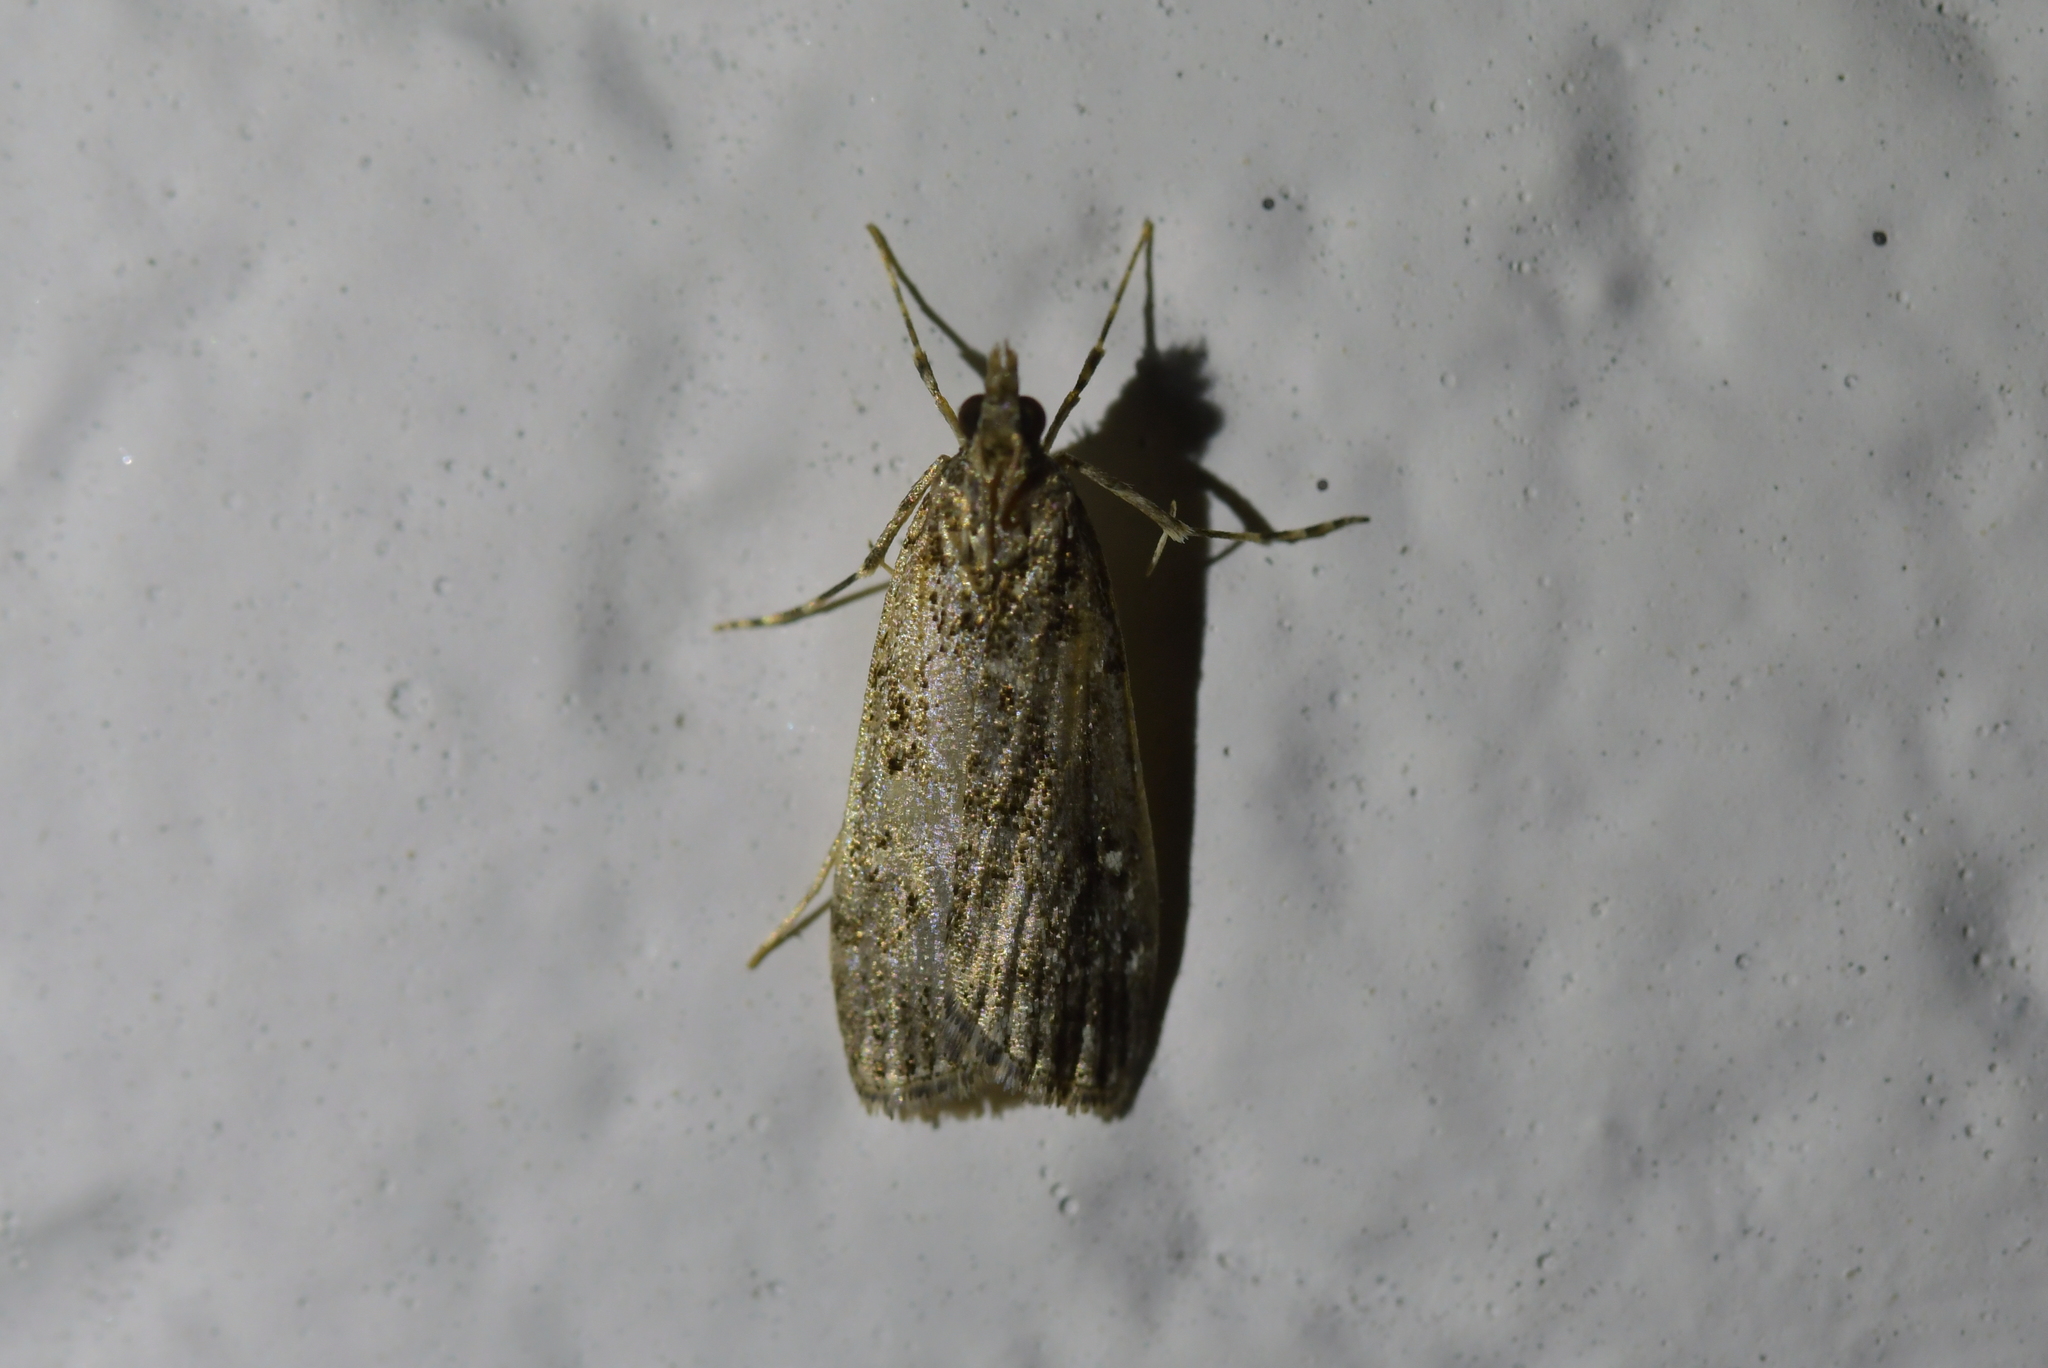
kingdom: Animalia
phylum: Arthropoda
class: Insecta
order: Lepidoptera
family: Crambidae
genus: Eudonia
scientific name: Eudonia philerga
